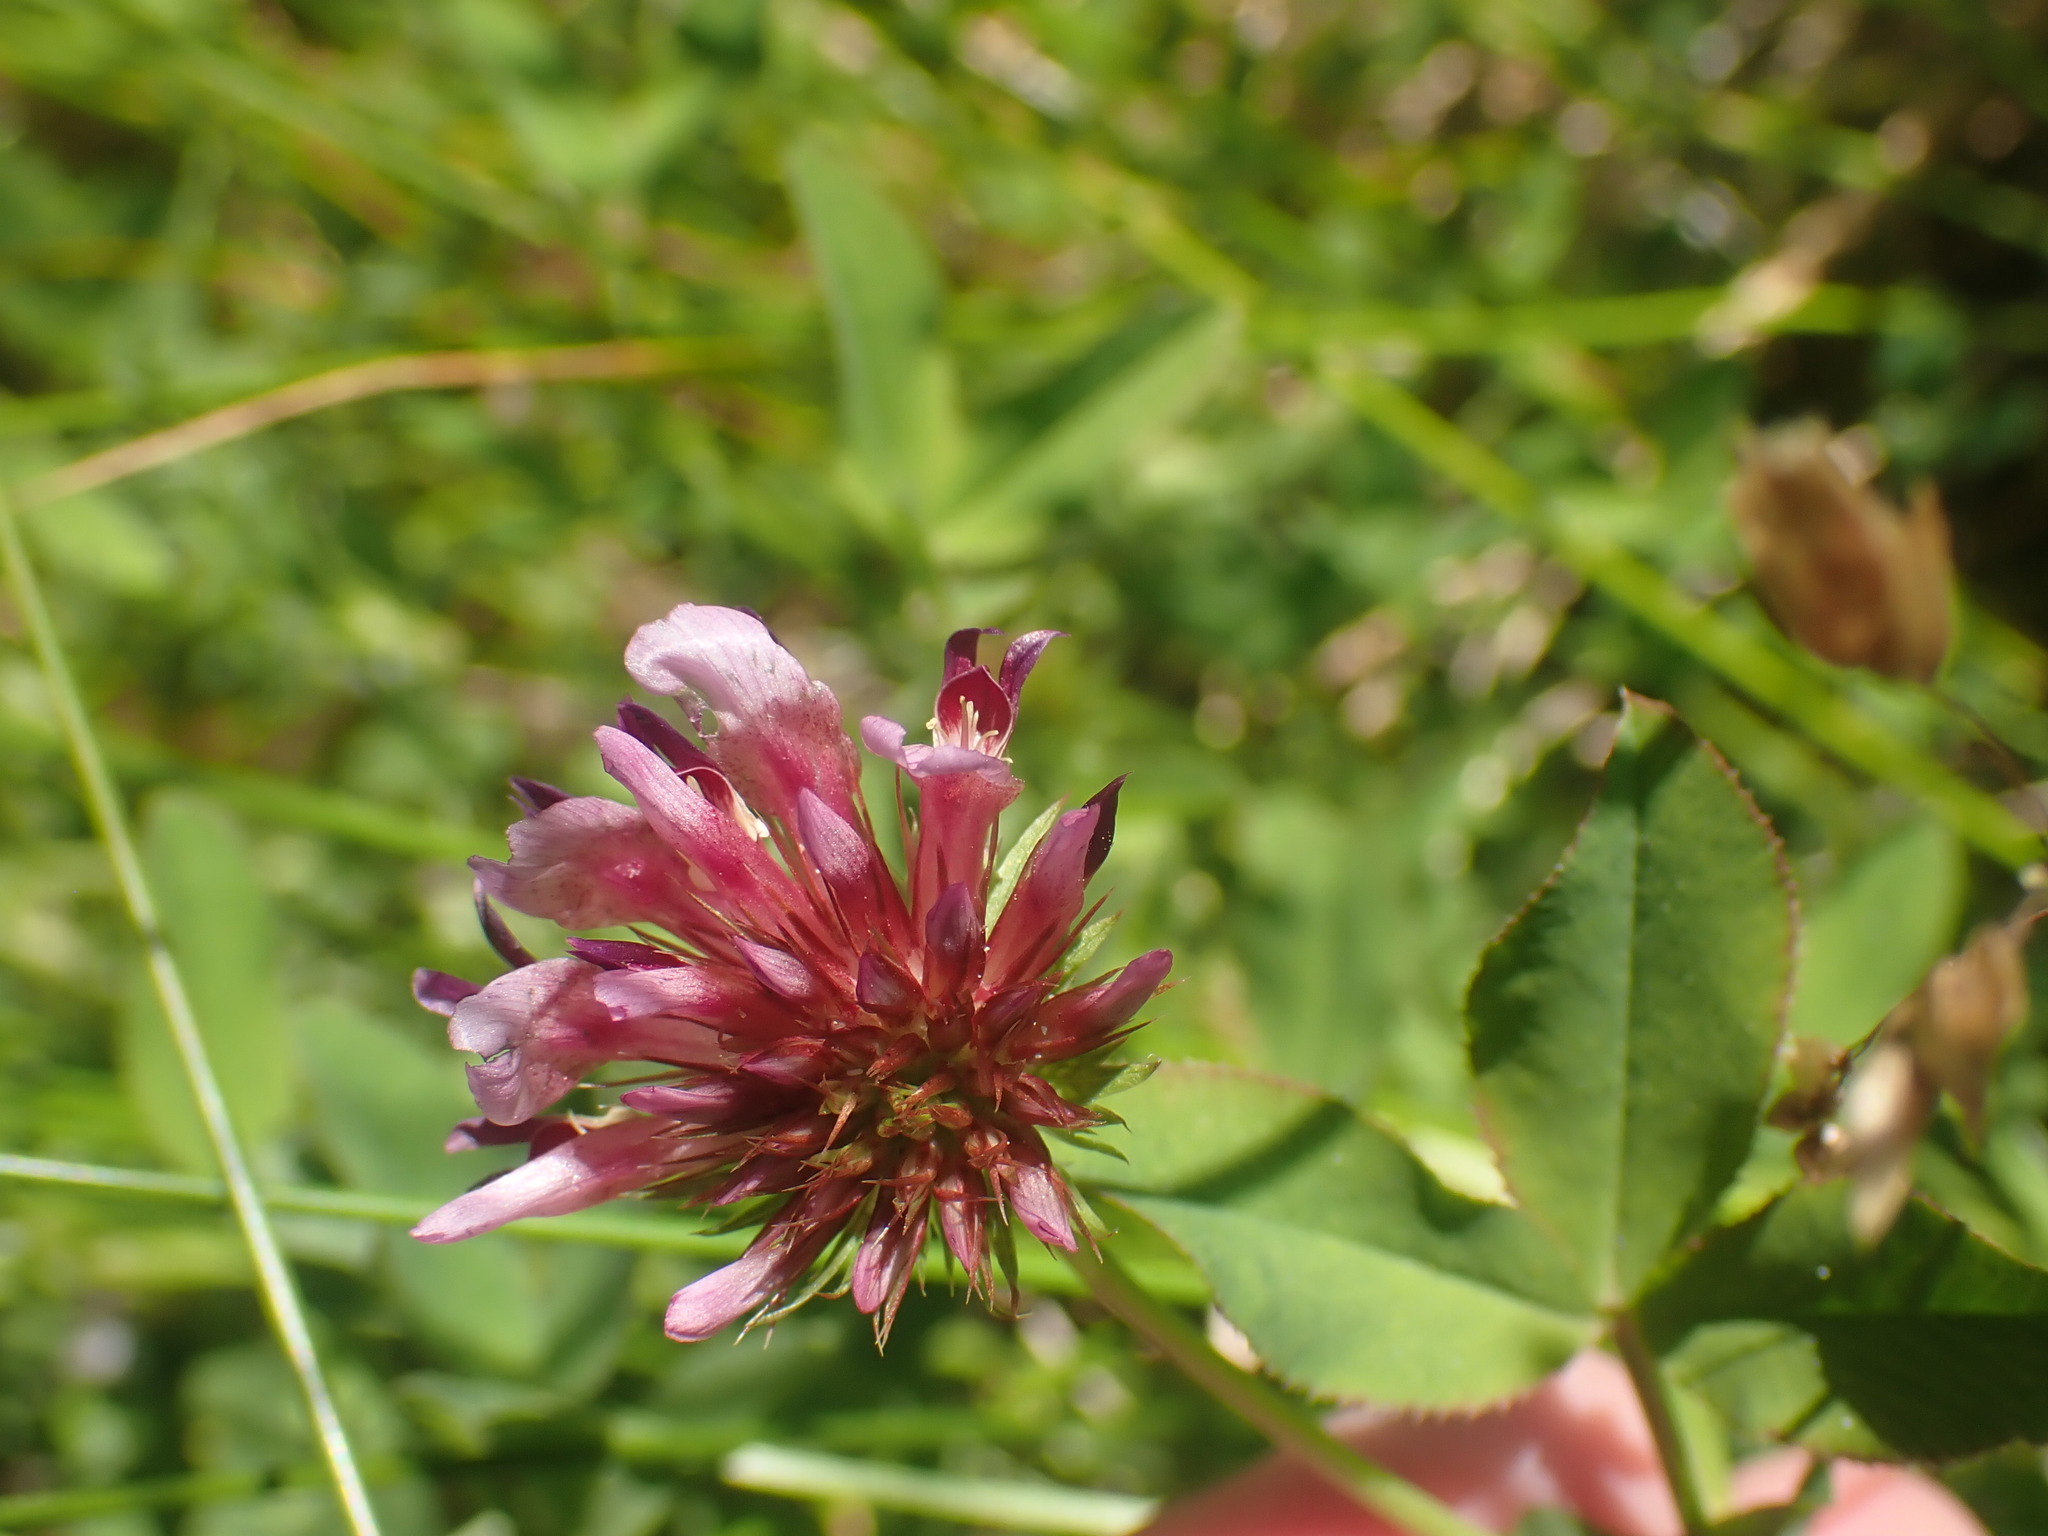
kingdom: Plantae
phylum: Tracheophyta
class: Magnoliopsida
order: Fabales
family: Fabaceae
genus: Trifolium
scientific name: Trifolium wormskioldii
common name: Springbank clover
